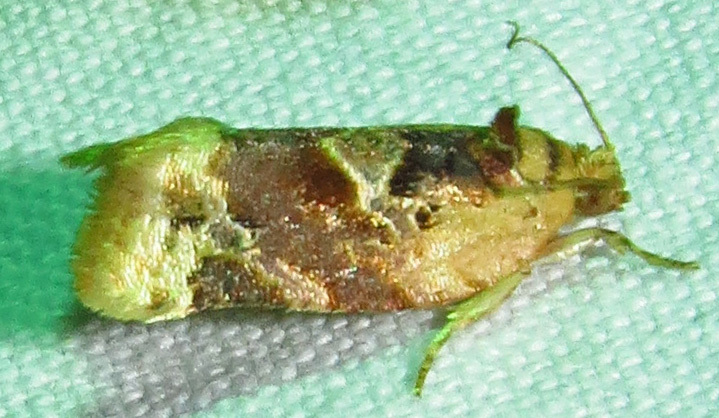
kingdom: Animalia
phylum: Arthropoda
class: Insecta
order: Lepidoptera
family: Tortricidae
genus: Argyrotaenia
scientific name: Argyrotaenia velutinana
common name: Red-banded leafroller moth
